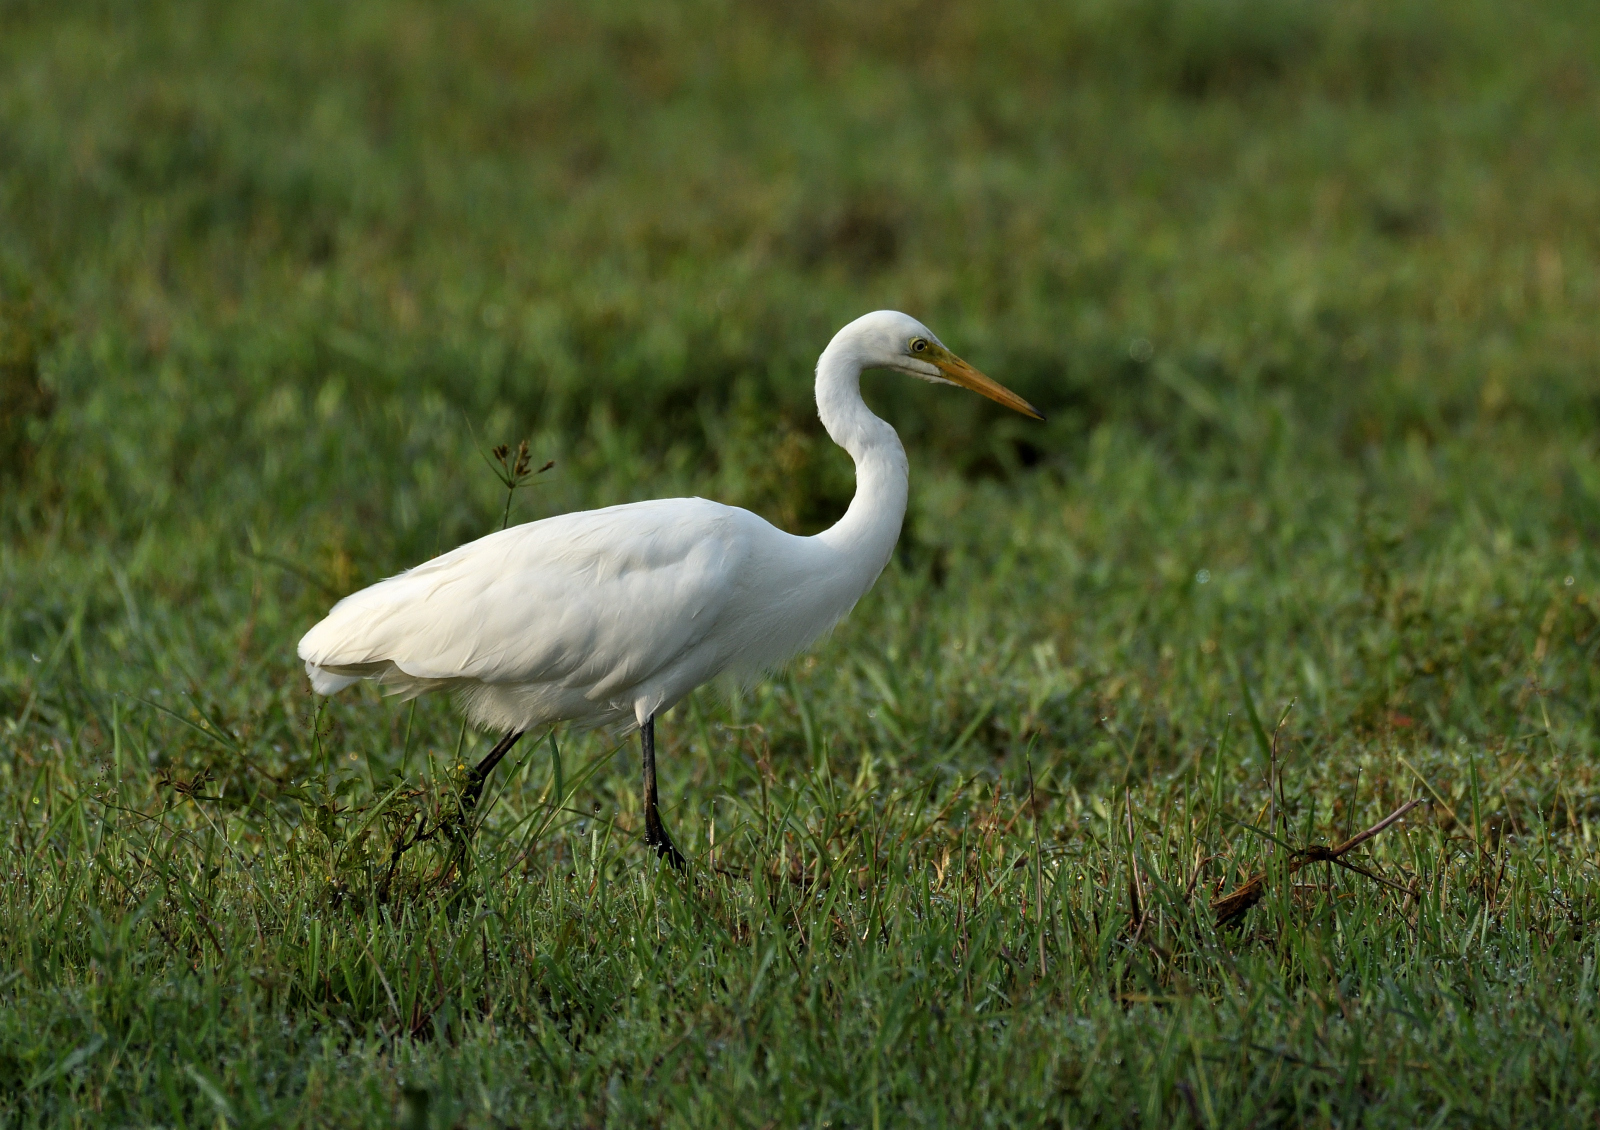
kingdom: Animalia
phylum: Chordata
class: Aves
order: Pelecaniformes
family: Ardeidae
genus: Egretta
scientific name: Egretta intermedia
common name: Intermediate egret
